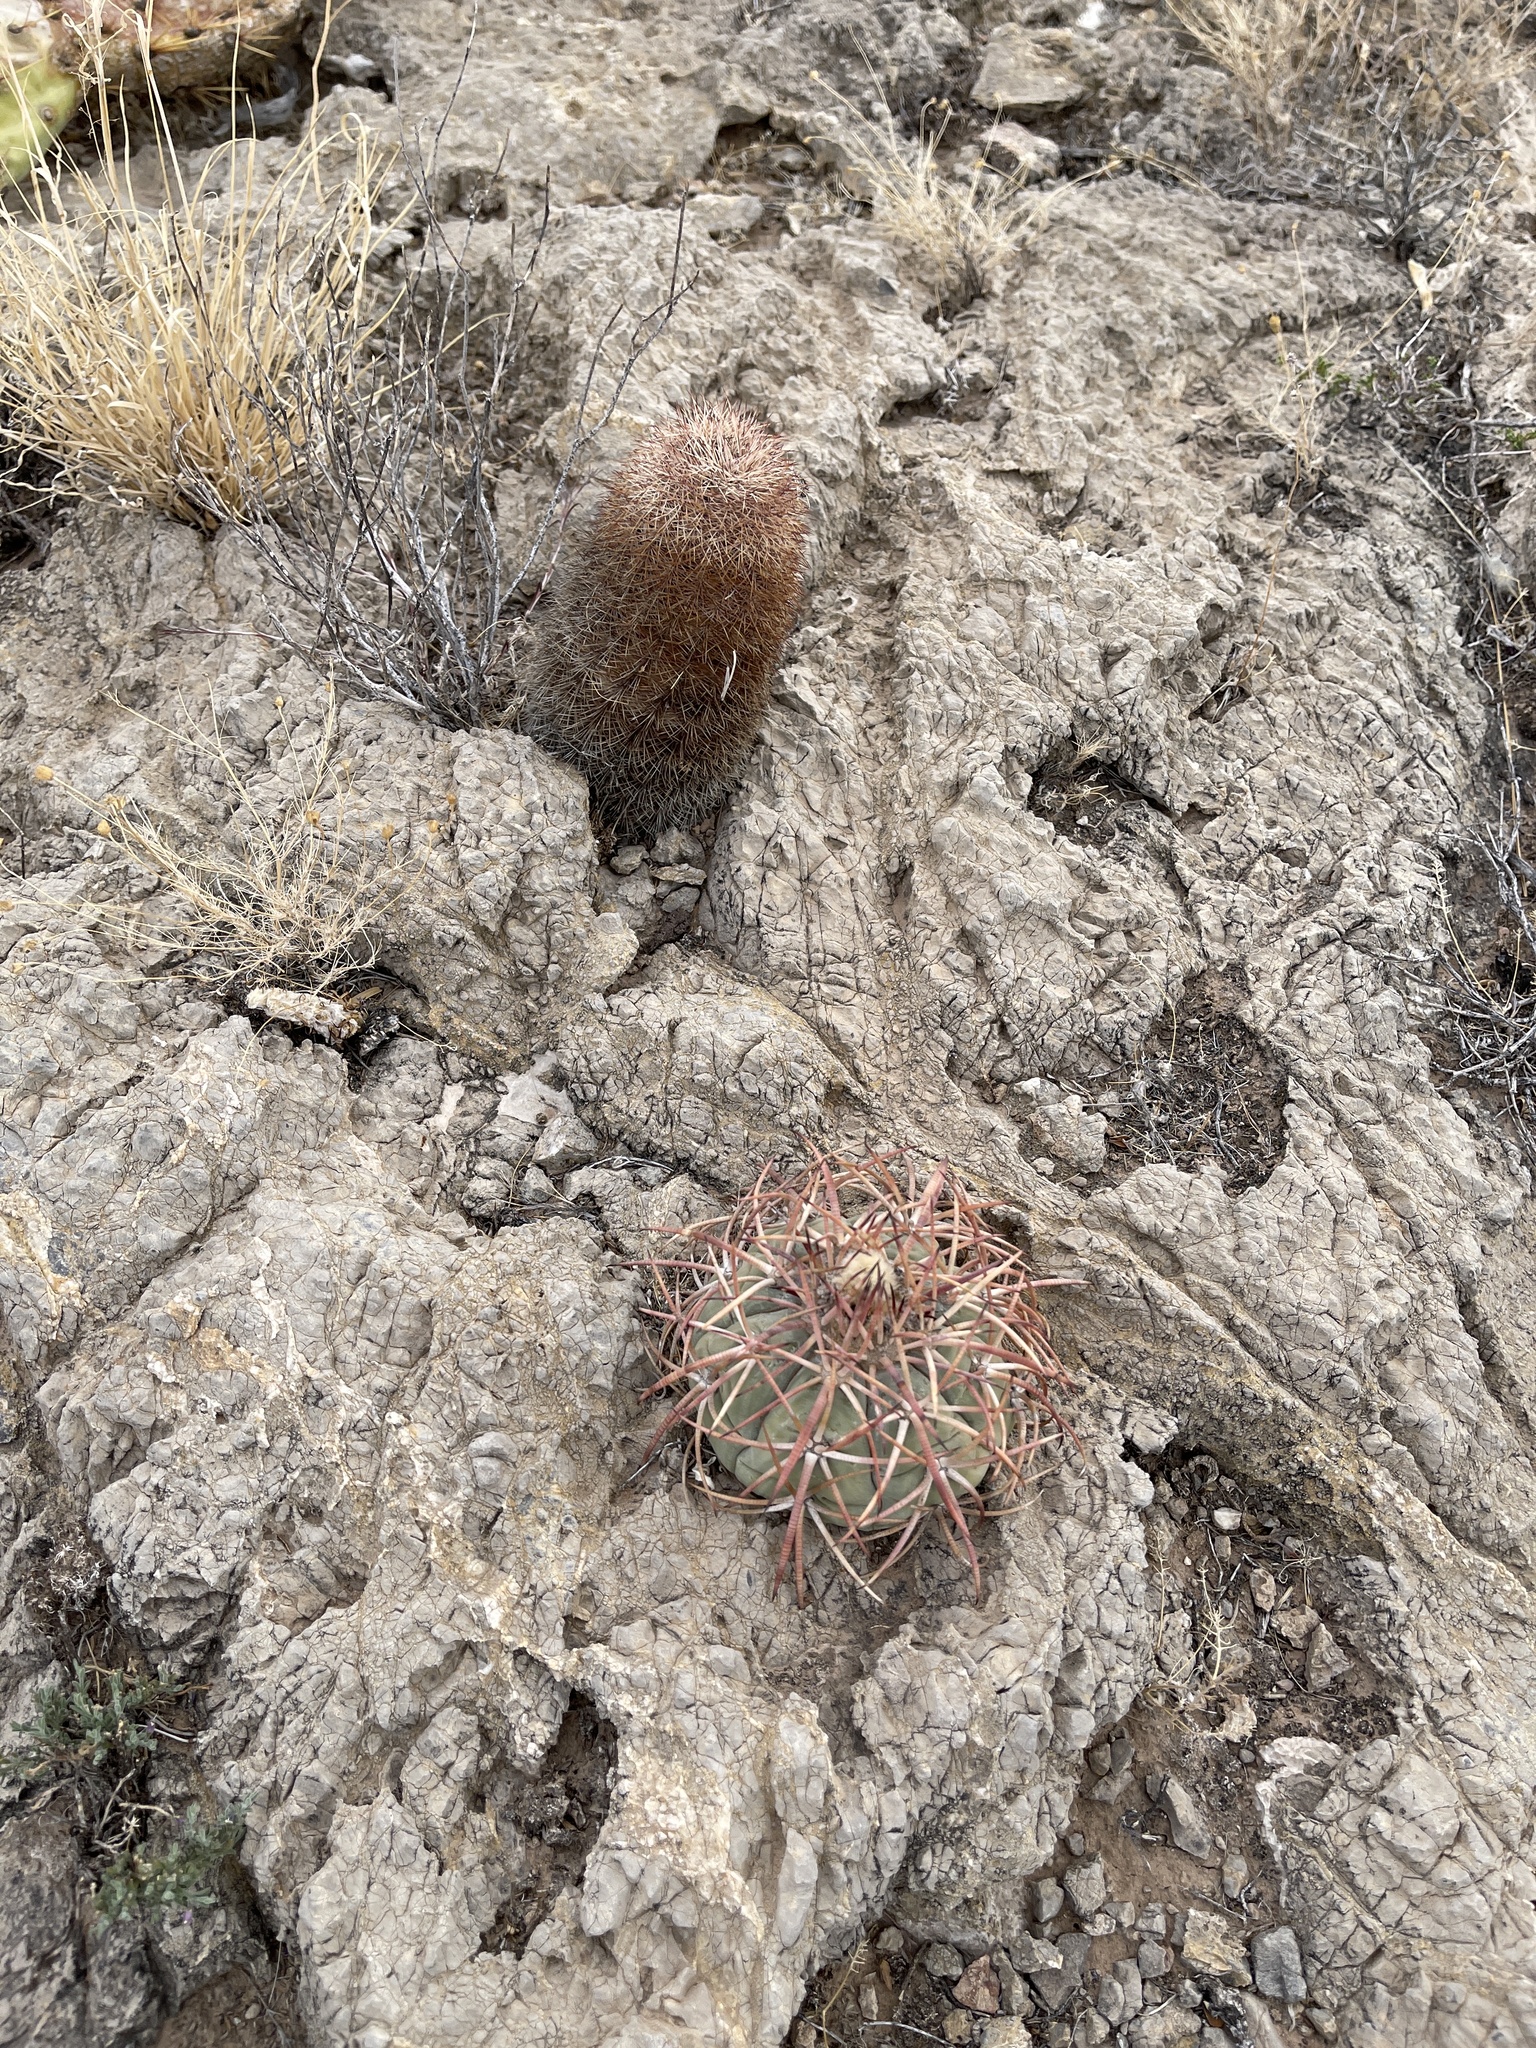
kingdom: Plantae
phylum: Tracheophyta
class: Magnoliopsida
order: Caryophyllales
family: Cactaceae
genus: Echinocactus
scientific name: Echinocactus horizonthalonius
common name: Devilshead
